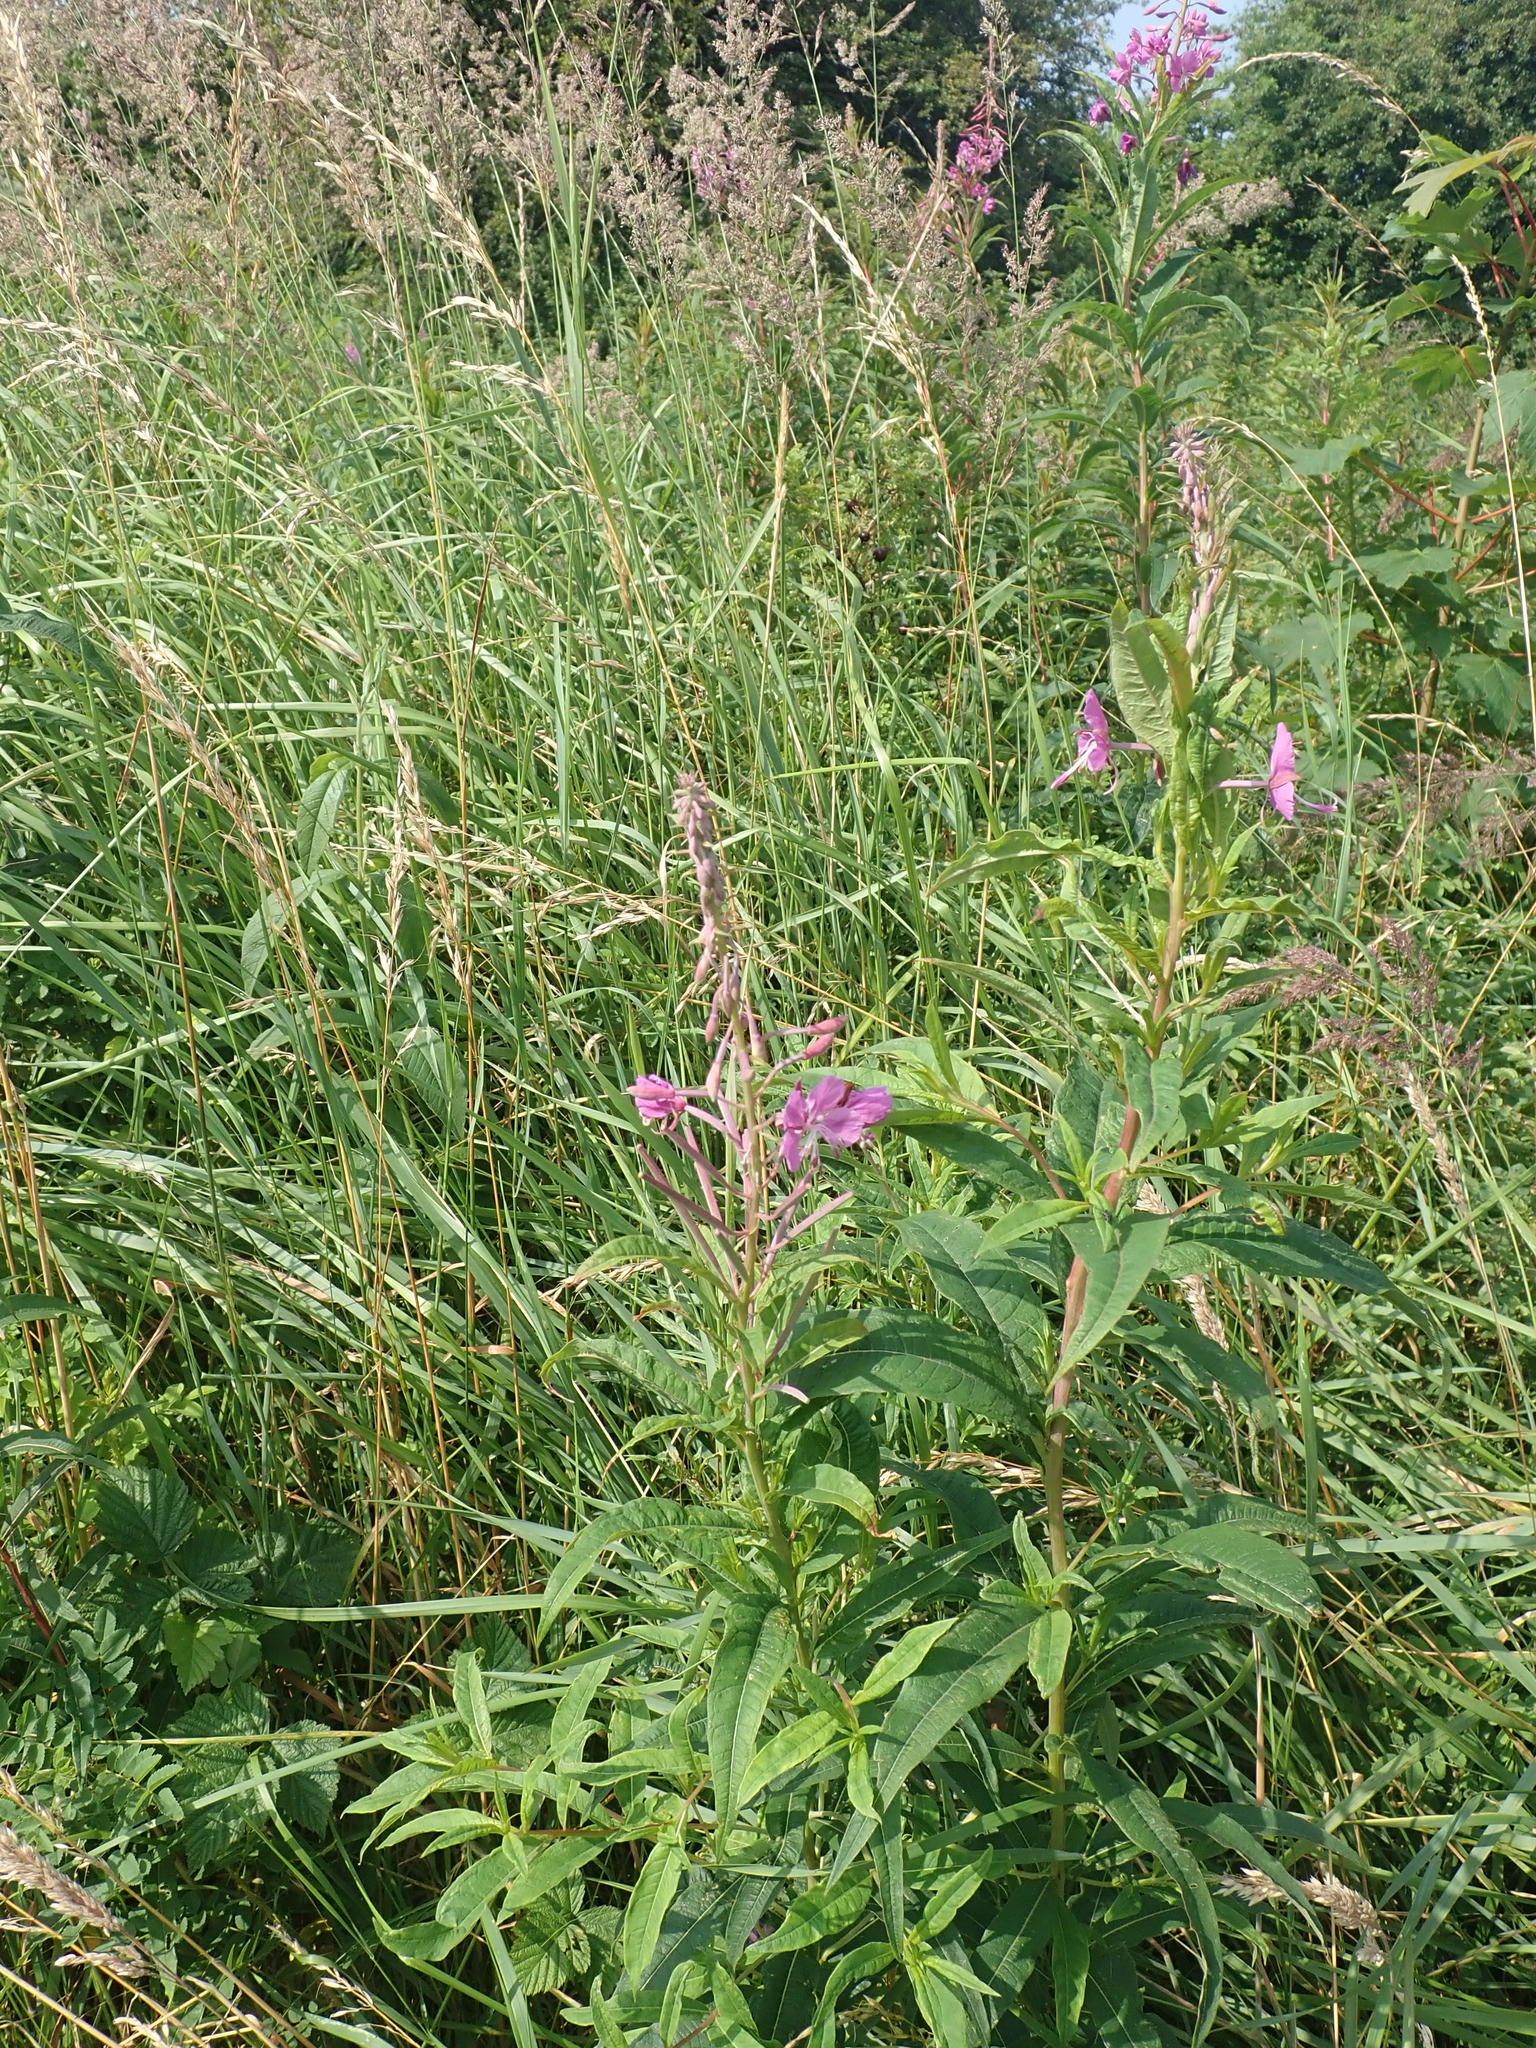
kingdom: Plantae
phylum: Tracheophyta
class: Magnoliopsida
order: Myrtales
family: Onagraceae
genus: Chamaenerion
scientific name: Chamaenerion angustifolium
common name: Fireweed
